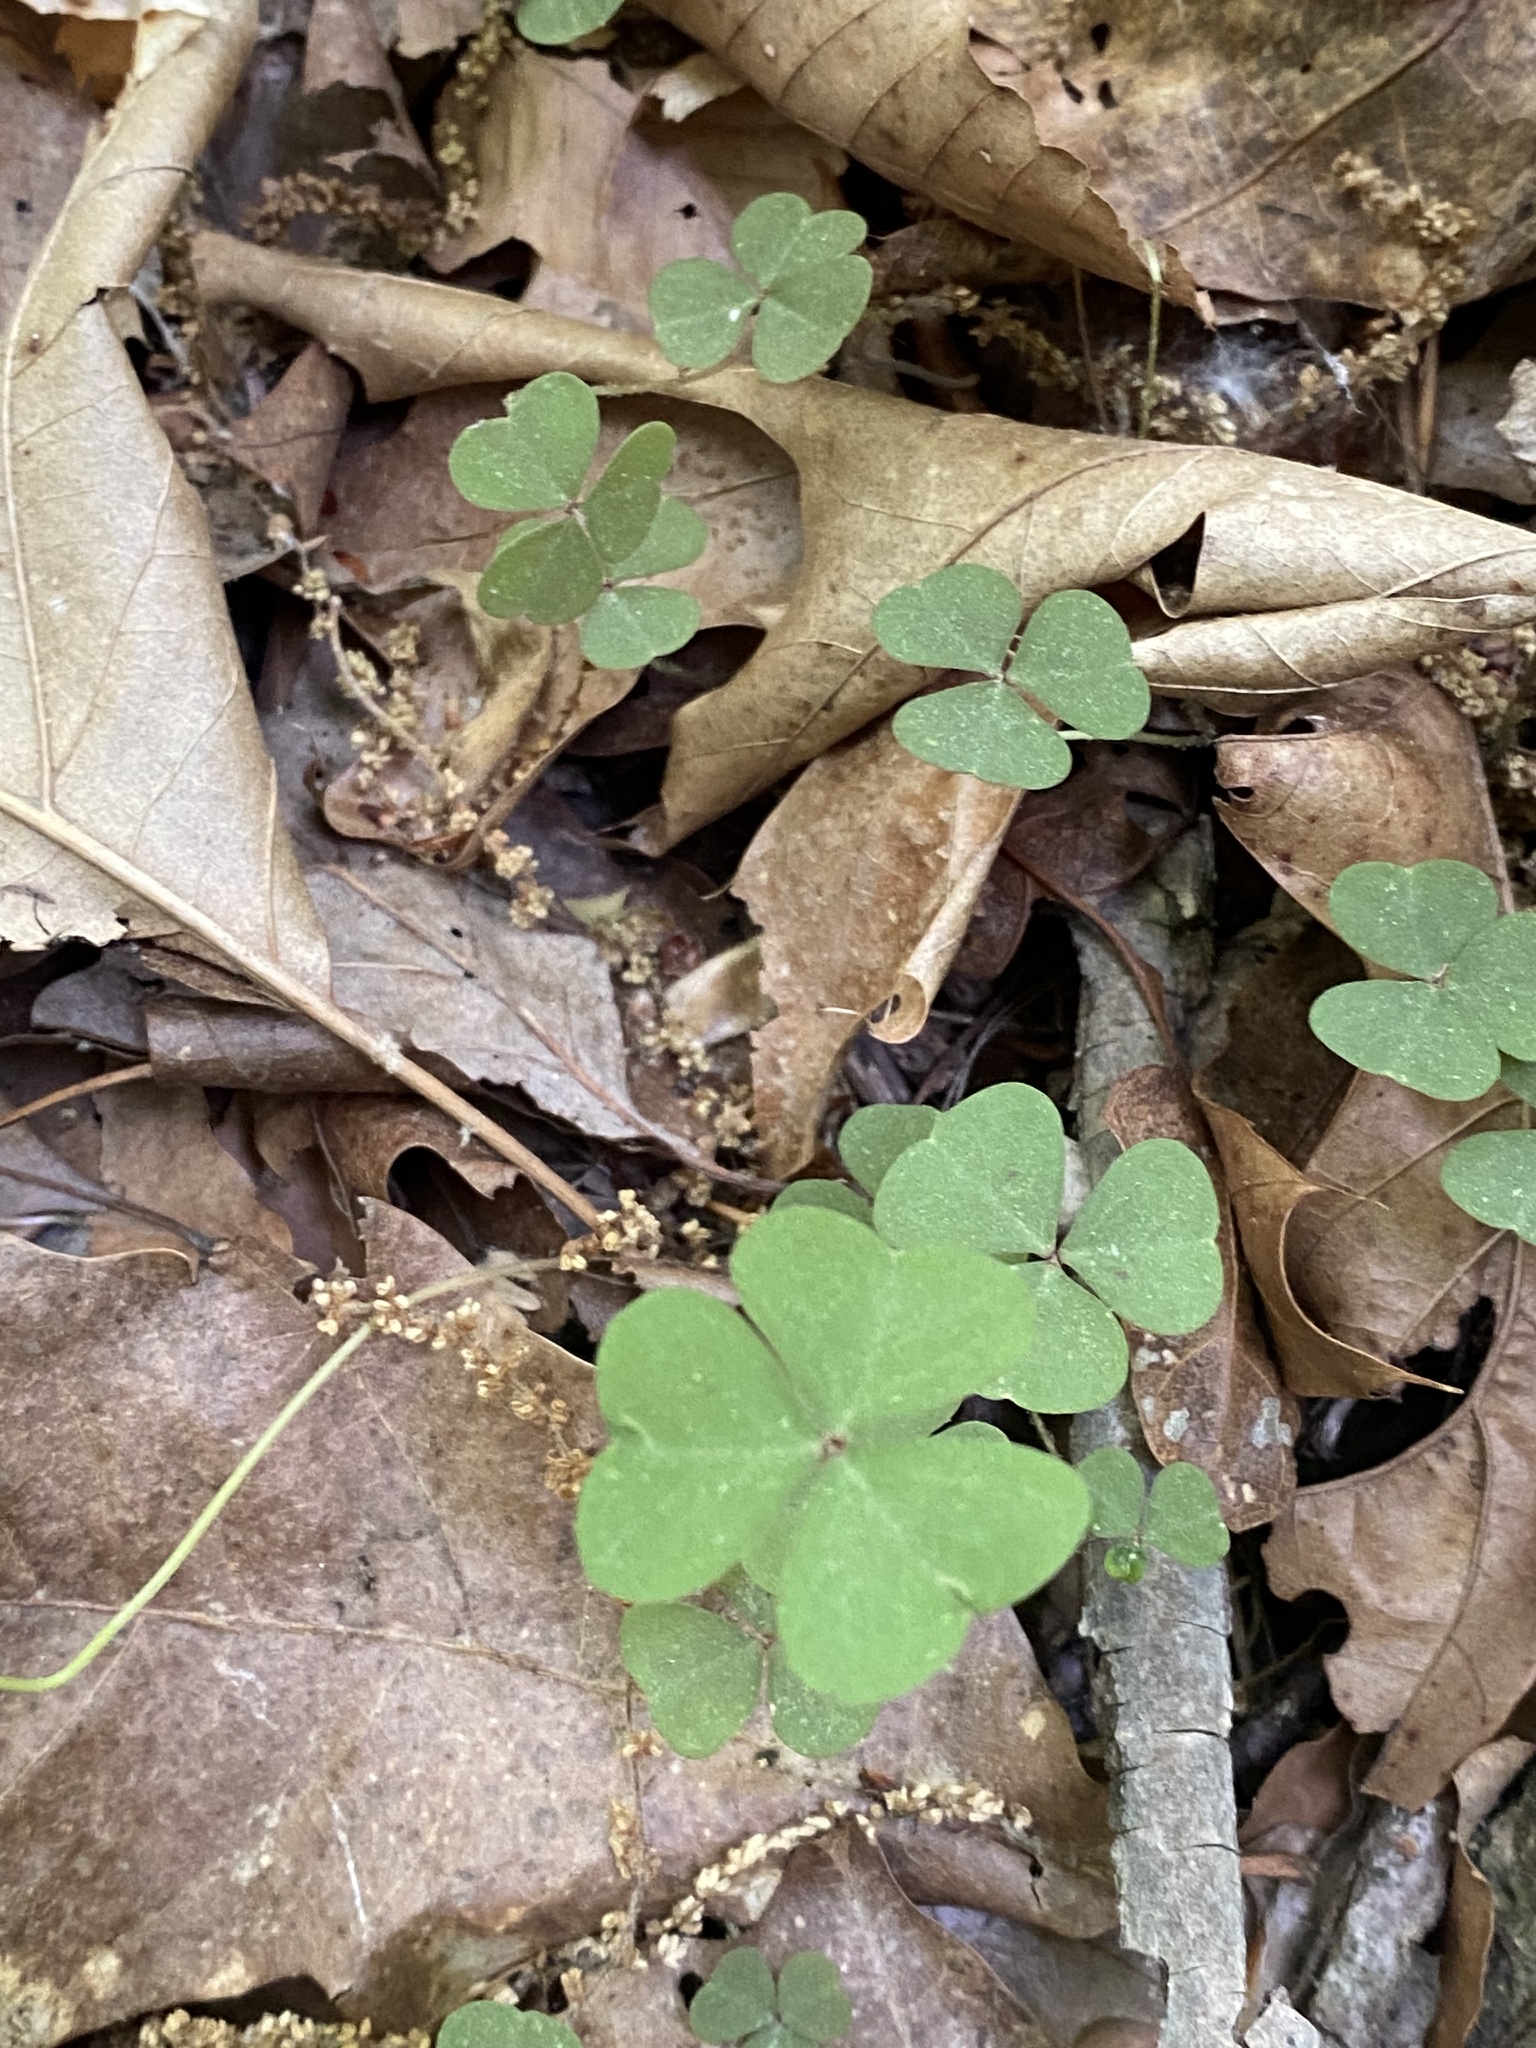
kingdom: Plantae
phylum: Tracheophyta
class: Magnoliopsida
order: Oxalidales
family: Oxalidaceae
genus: Oxalis
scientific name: Oxalis violacea
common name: Violet wood-sorrel
